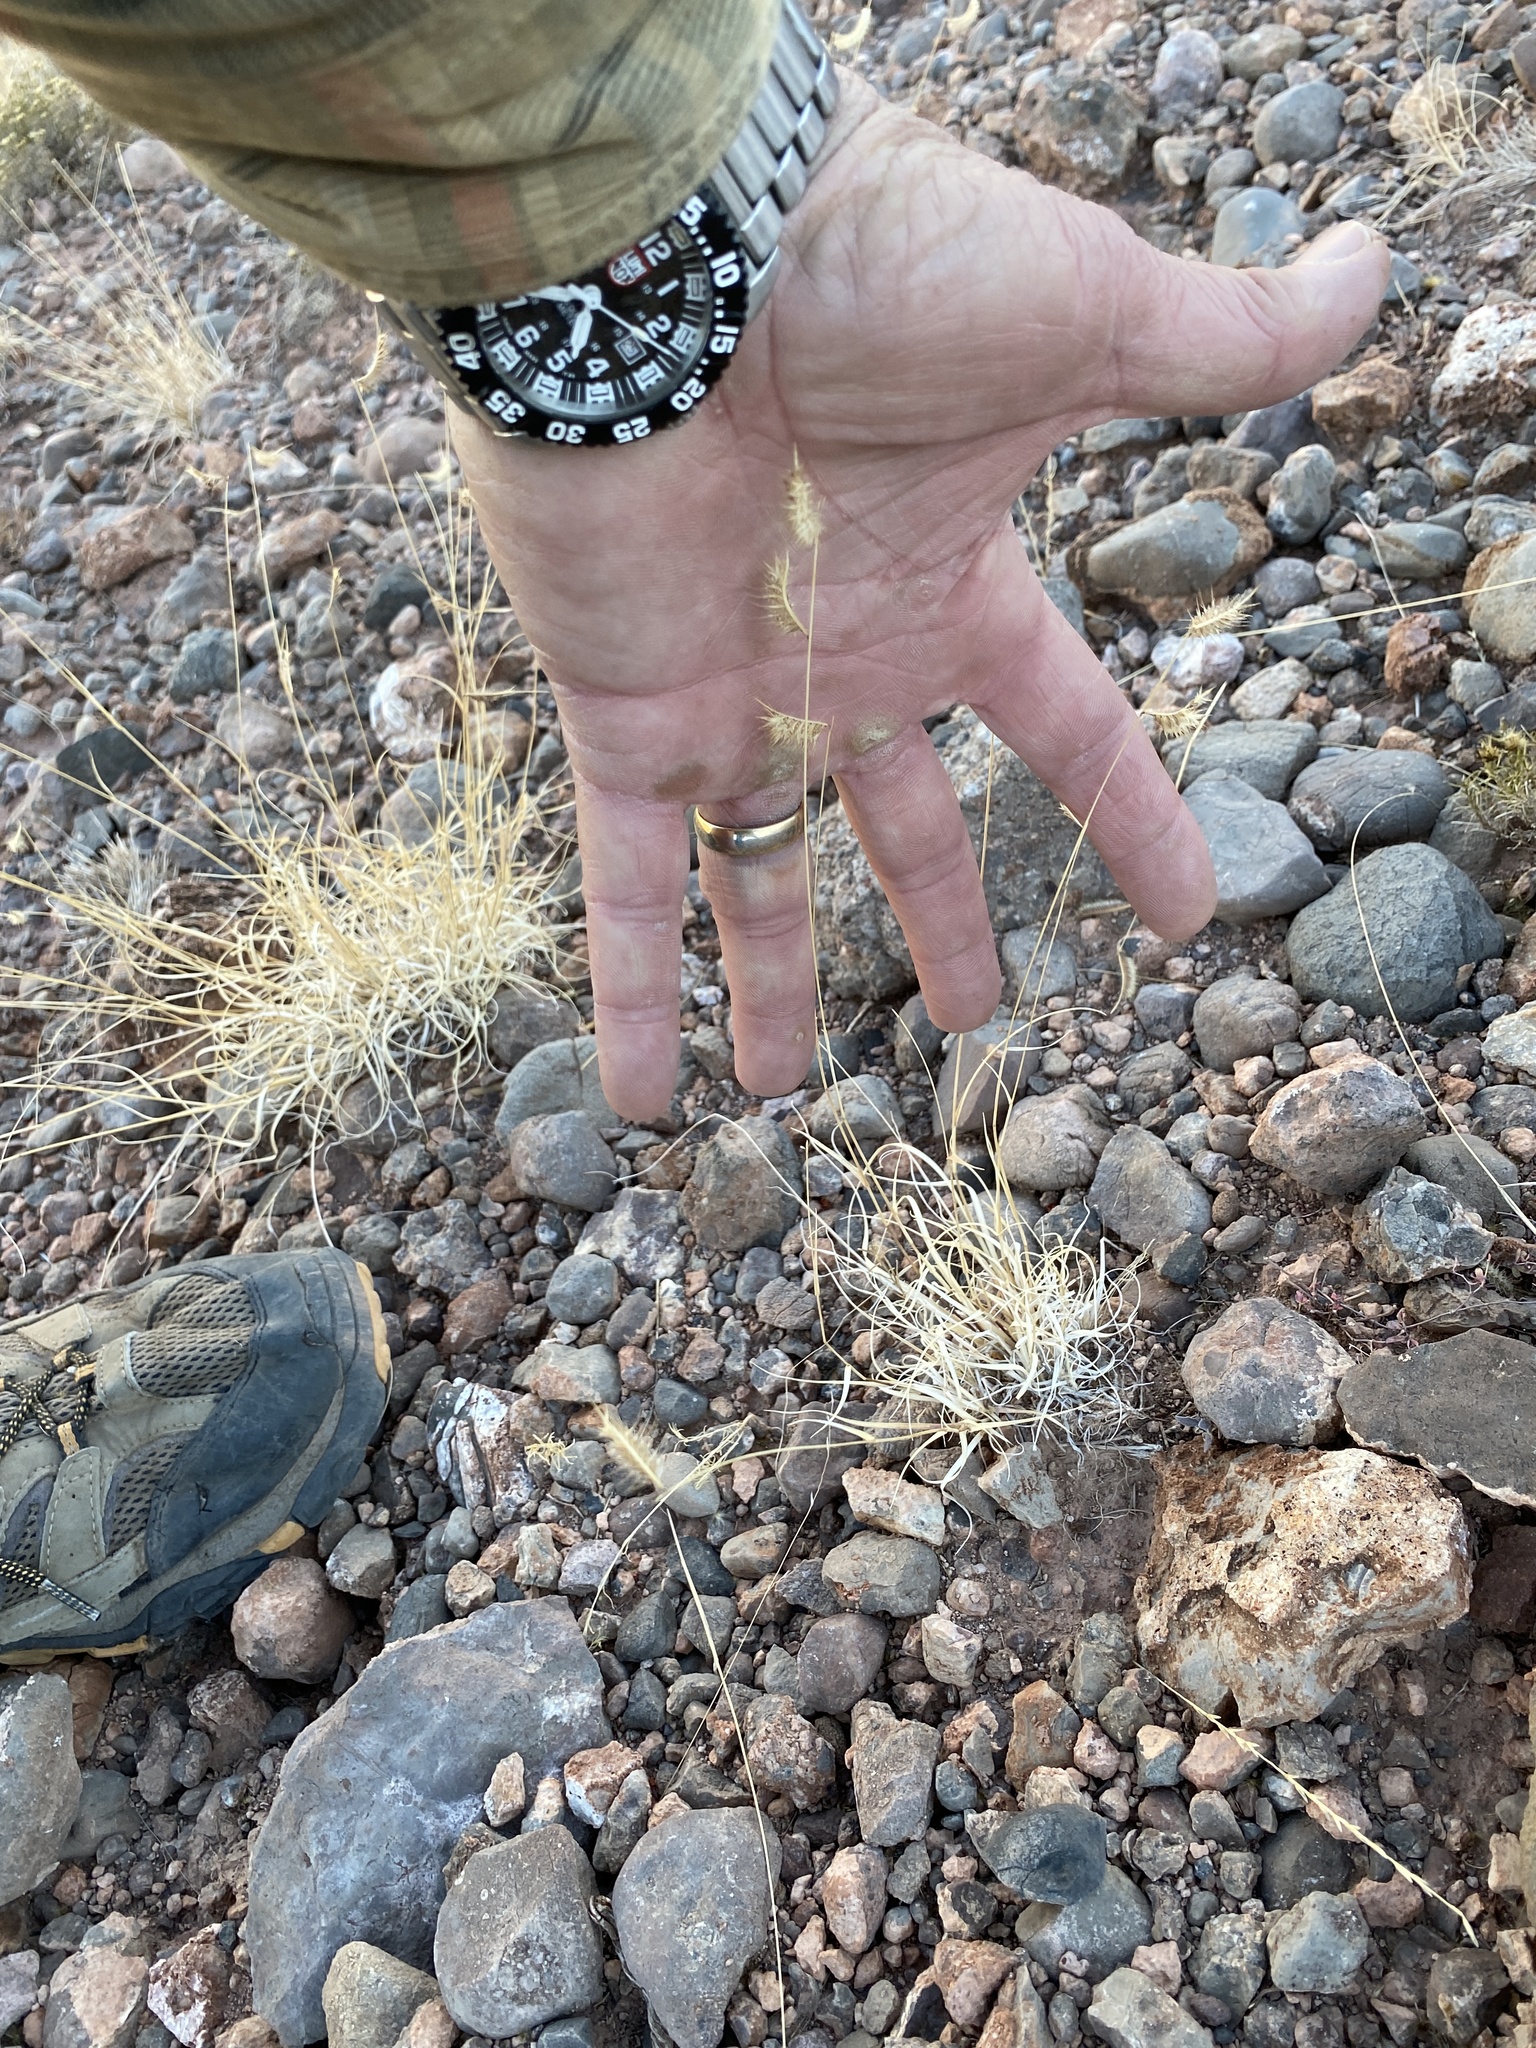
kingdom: Plantae
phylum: Tracheophyta
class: Liliopsida
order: Poales
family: Poaceae
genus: Bouteloua
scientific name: Bouteloua hirsuta
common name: Hairy grama
